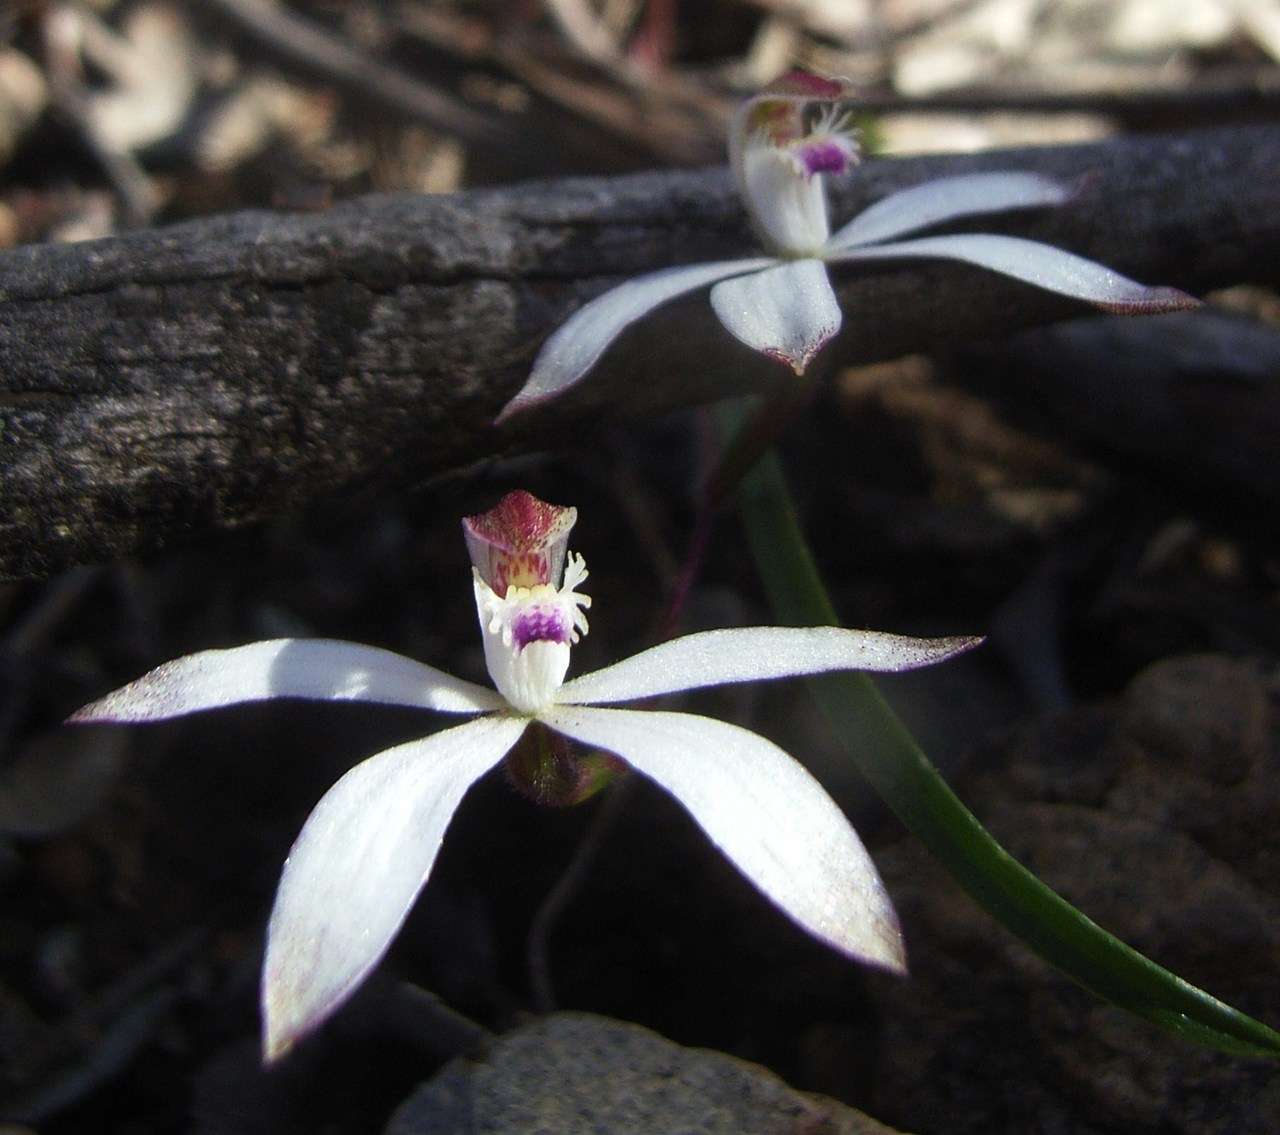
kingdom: Plantae
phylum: Tracheophyta
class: Liliopsida
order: Asparagales
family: Orchidaceae
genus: Caladenia
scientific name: Caladenia dimorpha
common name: Spicy caps
